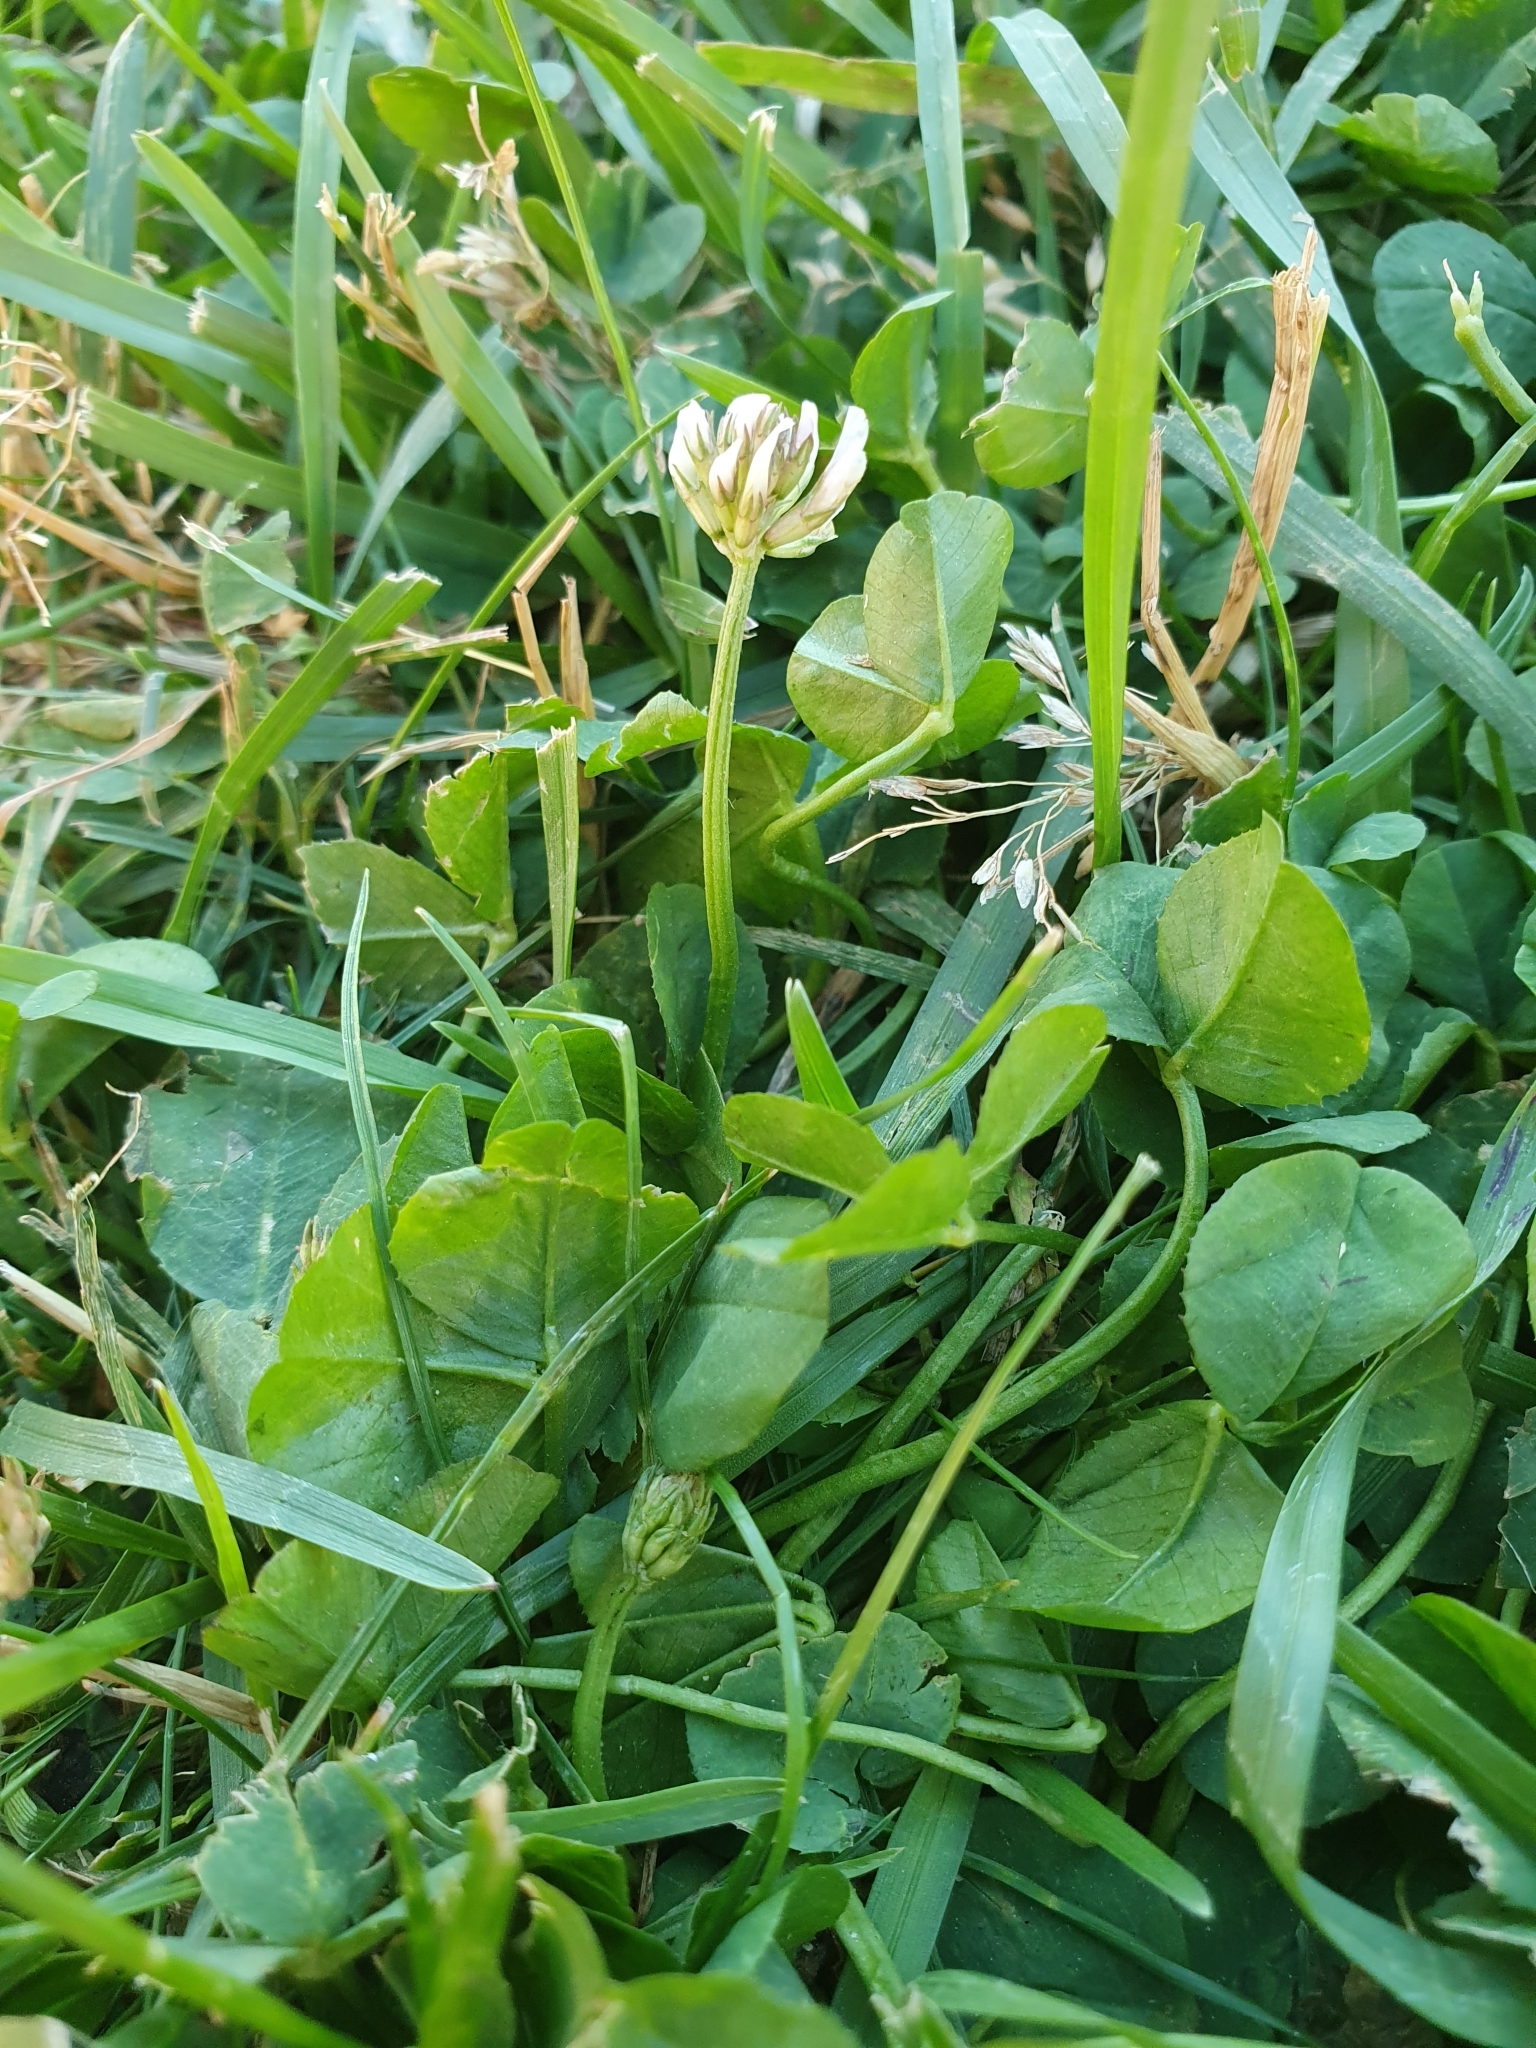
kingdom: Plantae
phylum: Tracheophyta
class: Magnoliopsida
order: Fabales
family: Fabaceae
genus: Trifolium
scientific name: Trifolium repens
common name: White clover
